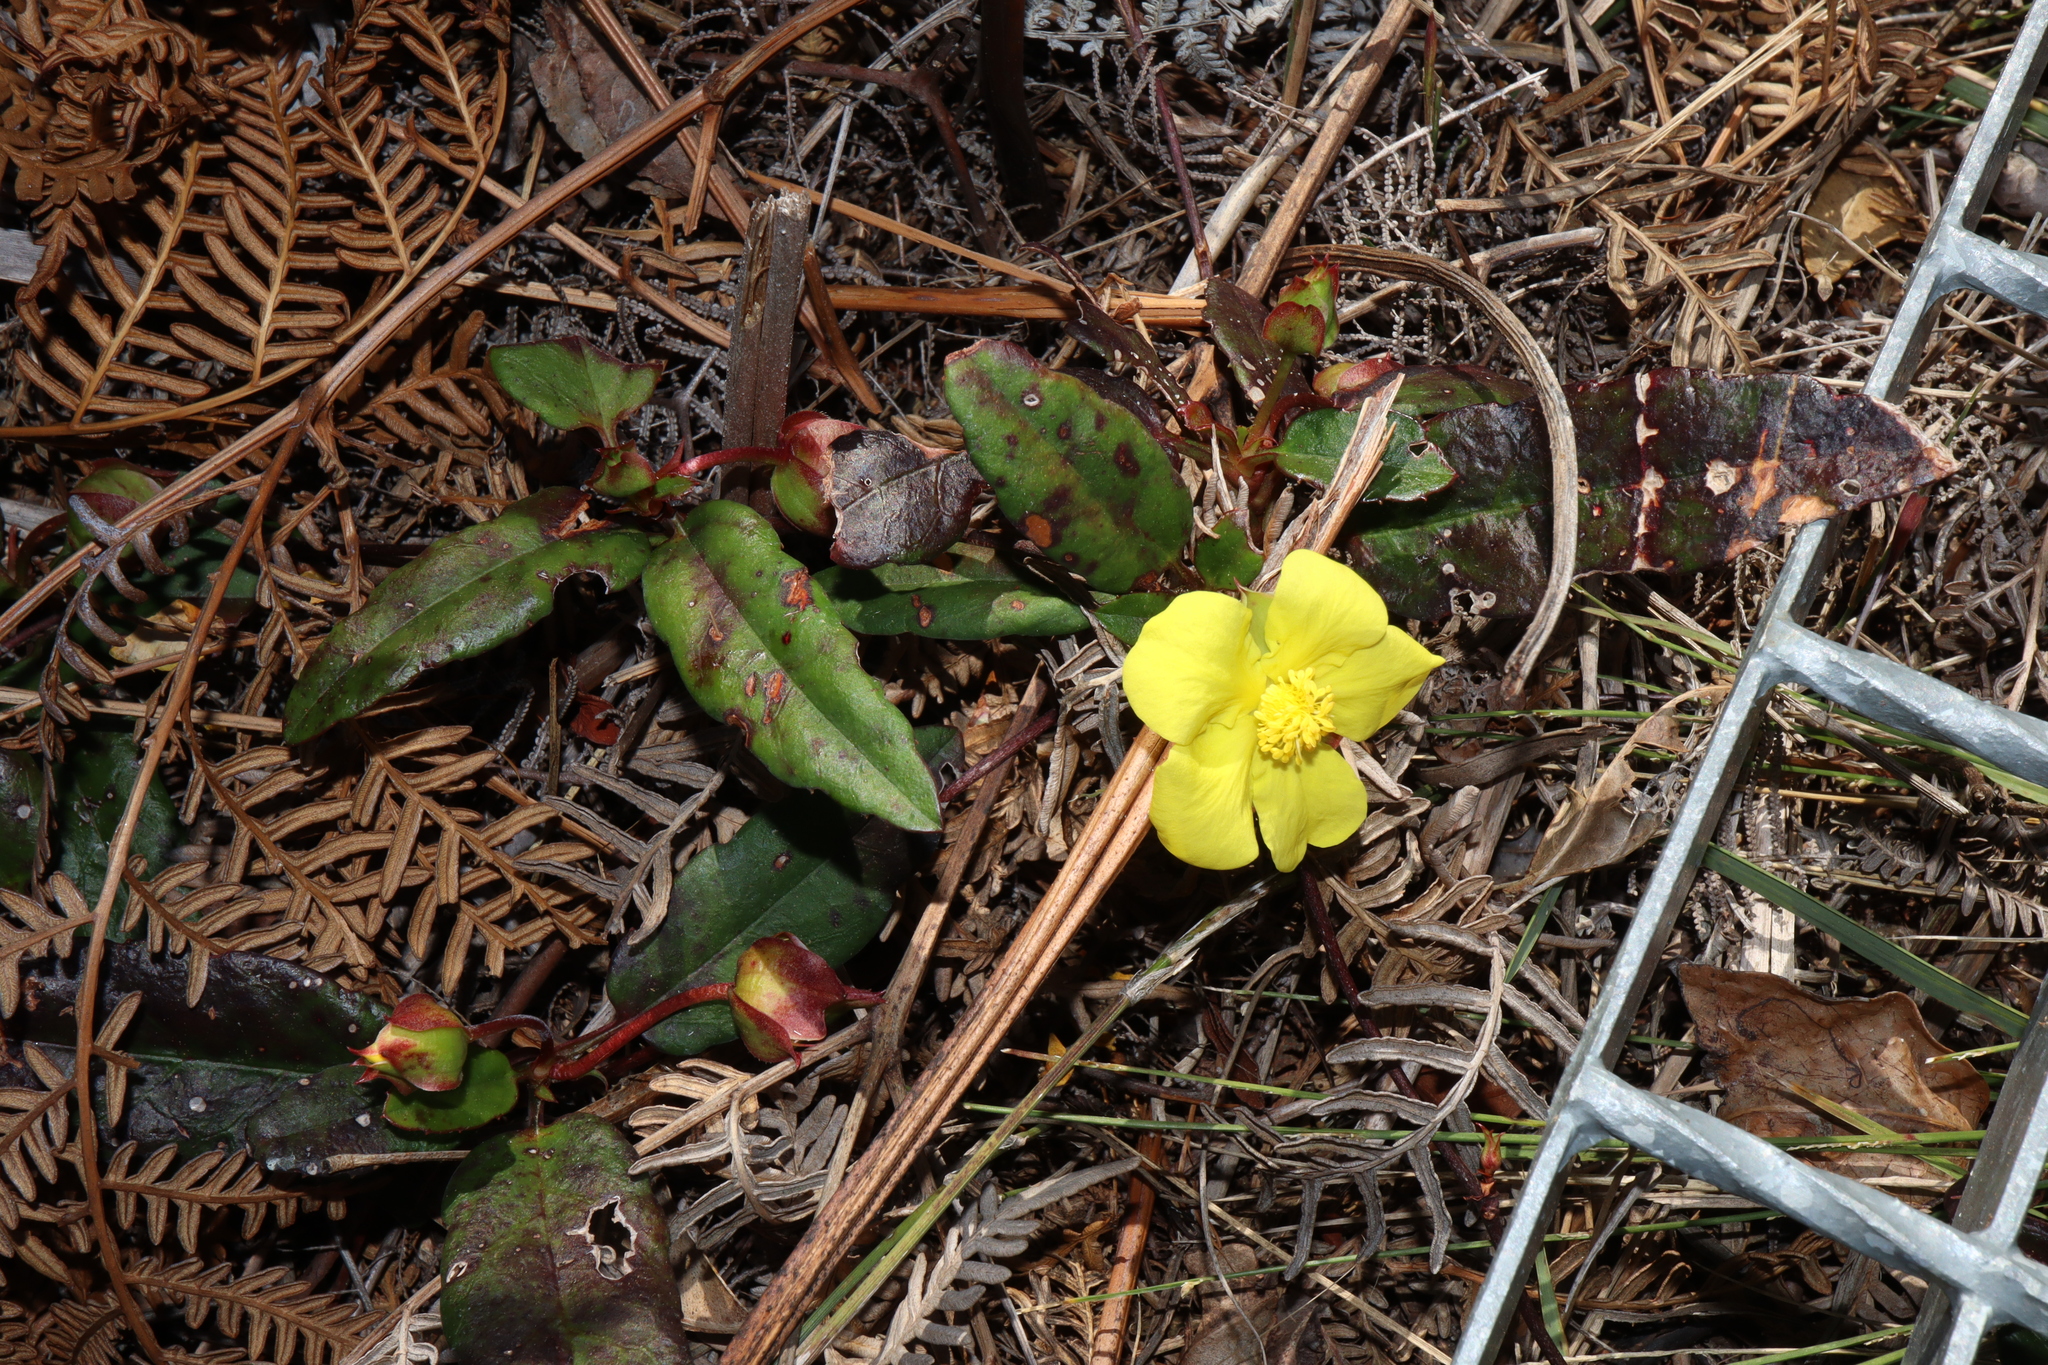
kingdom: Plantae
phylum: Tracheophyta
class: Magnoliopsida
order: Dilleniales
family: Dilleniaceae
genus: Hibbertia
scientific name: Hibbertia dentata
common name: Trailing guinea-flower
